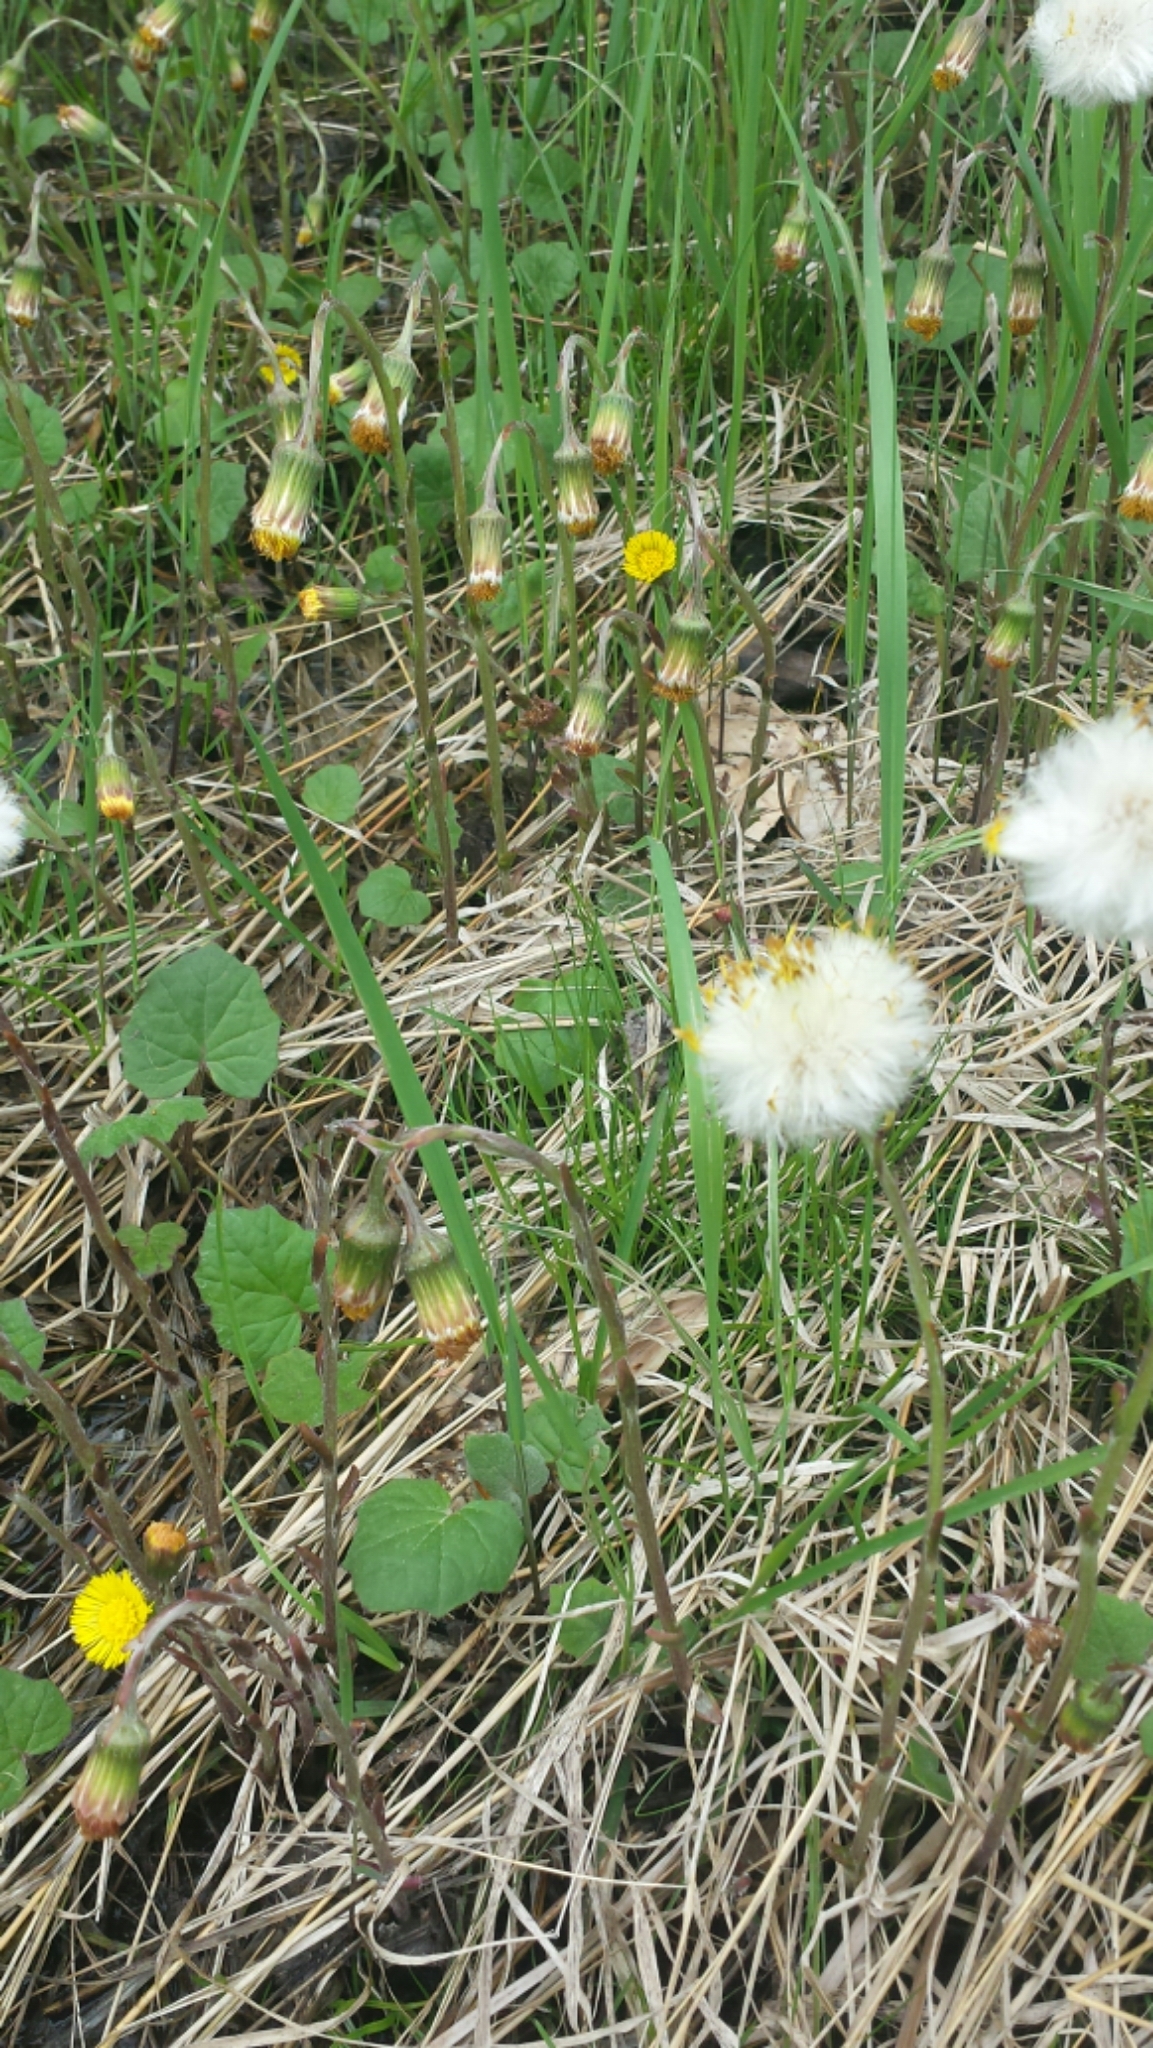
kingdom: Plantae
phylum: Tracheophyta
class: Magnoliopsida
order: Asterales
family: Asteraceae
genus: Tussilago
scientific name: Tussilago farfara
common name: Coltsfoot
